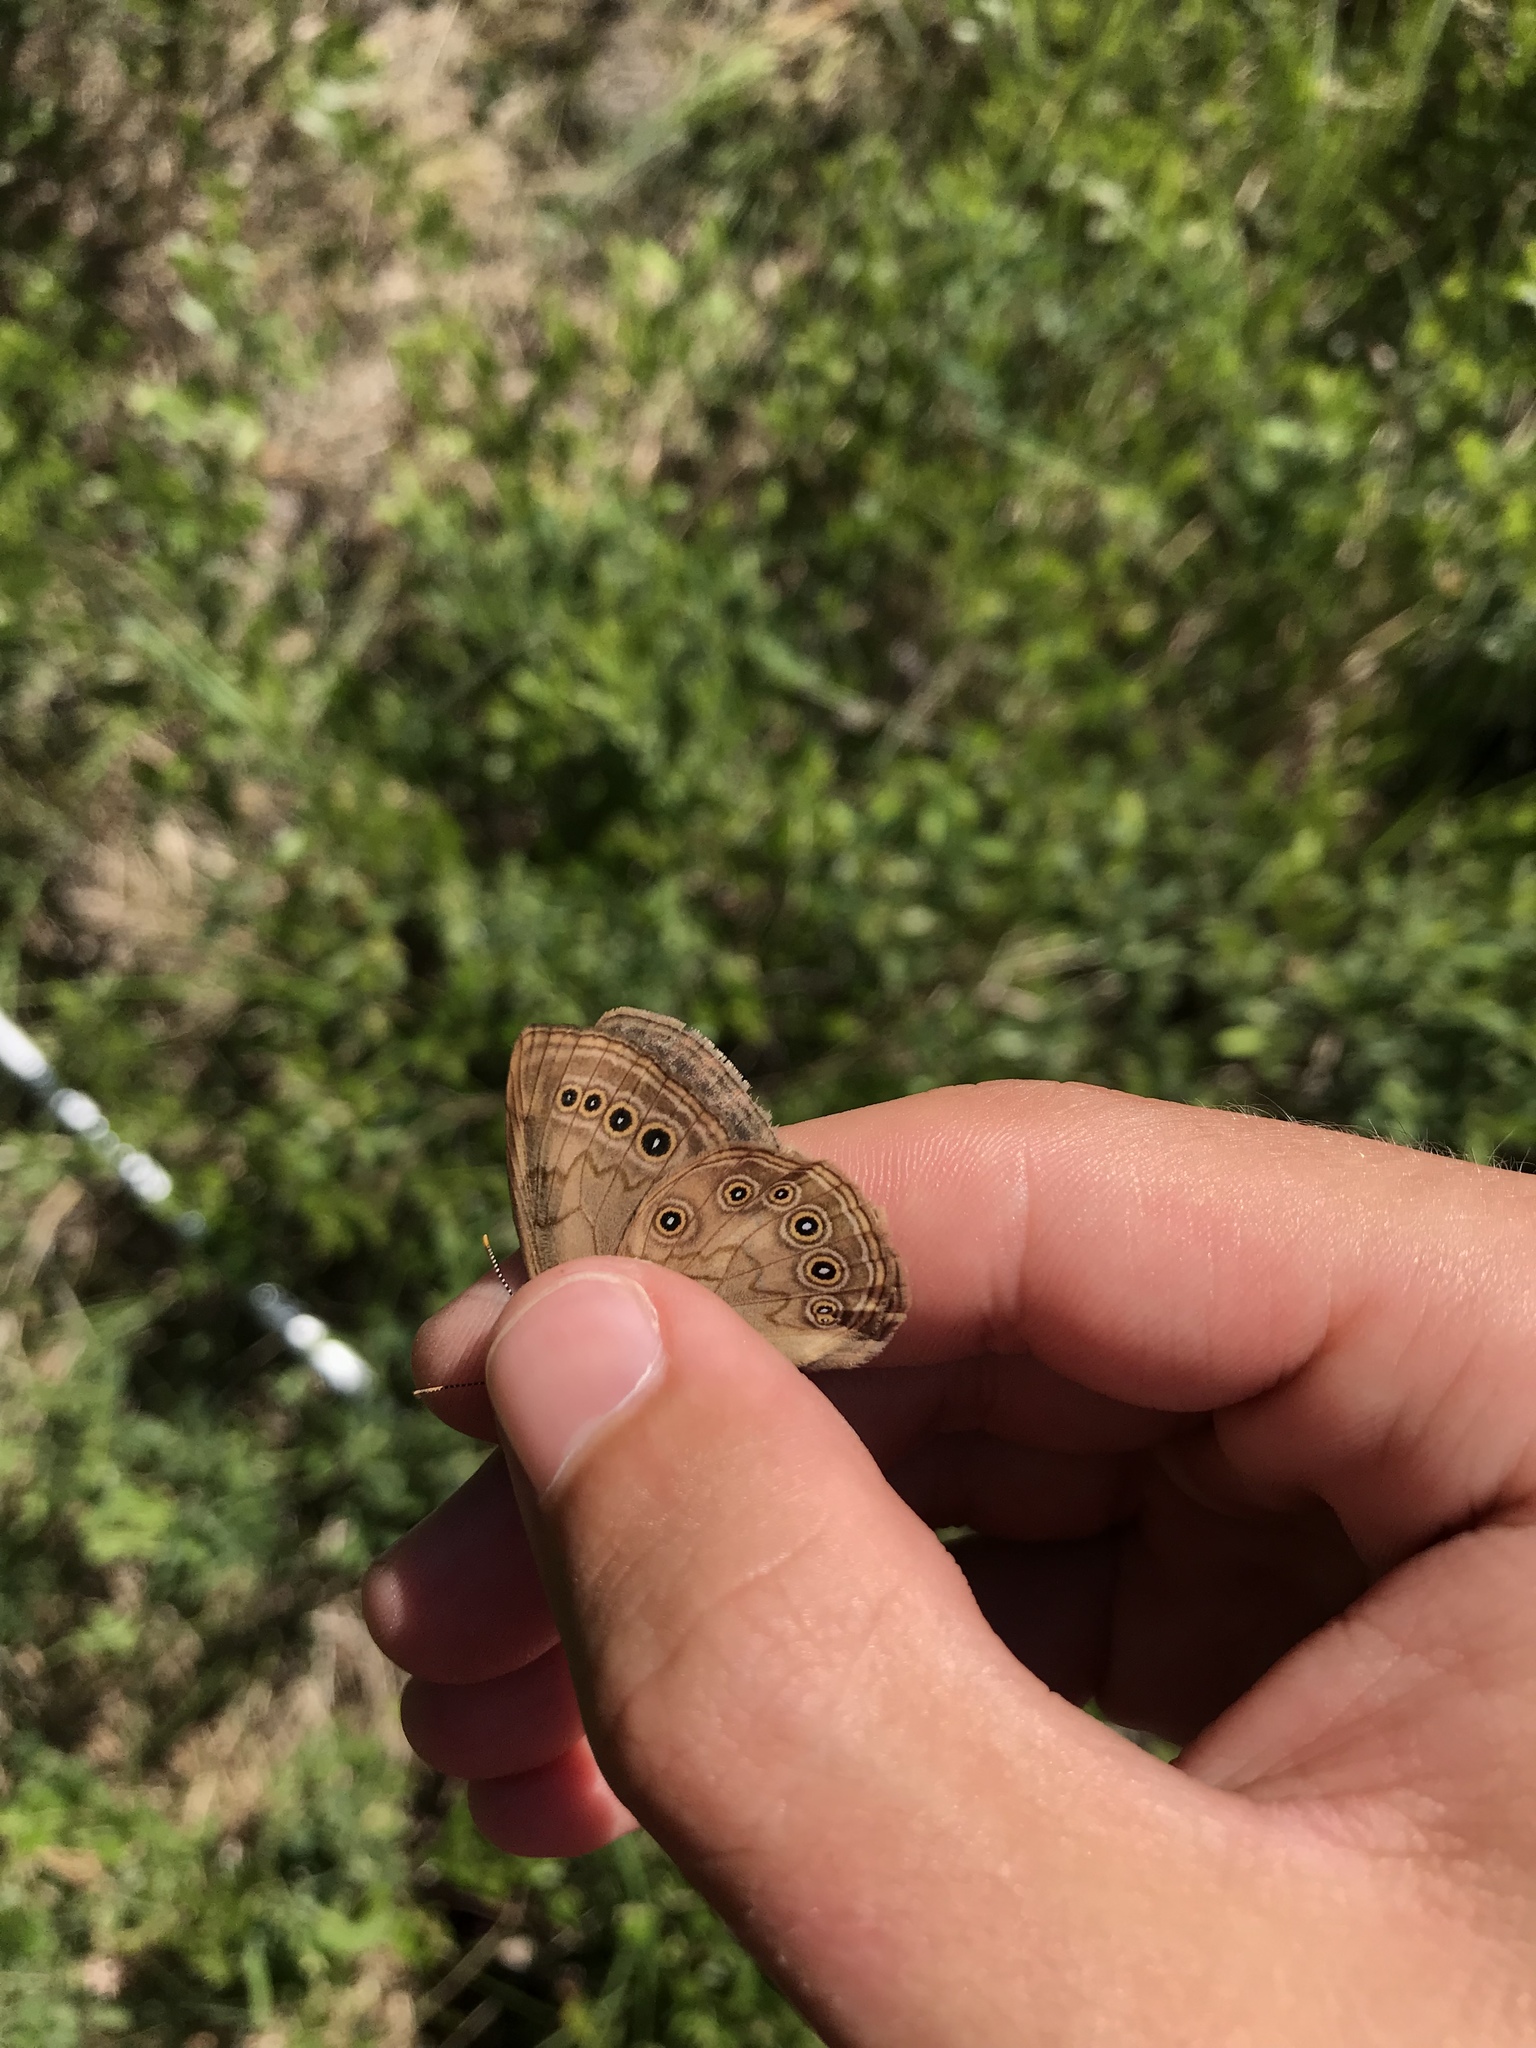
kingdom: Animalia
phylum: Arthropoda
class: Insecta
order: Lepidoptera
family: Nymphalidae
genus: Lethe
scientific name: Lethe eurydice
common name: Eyed brown
